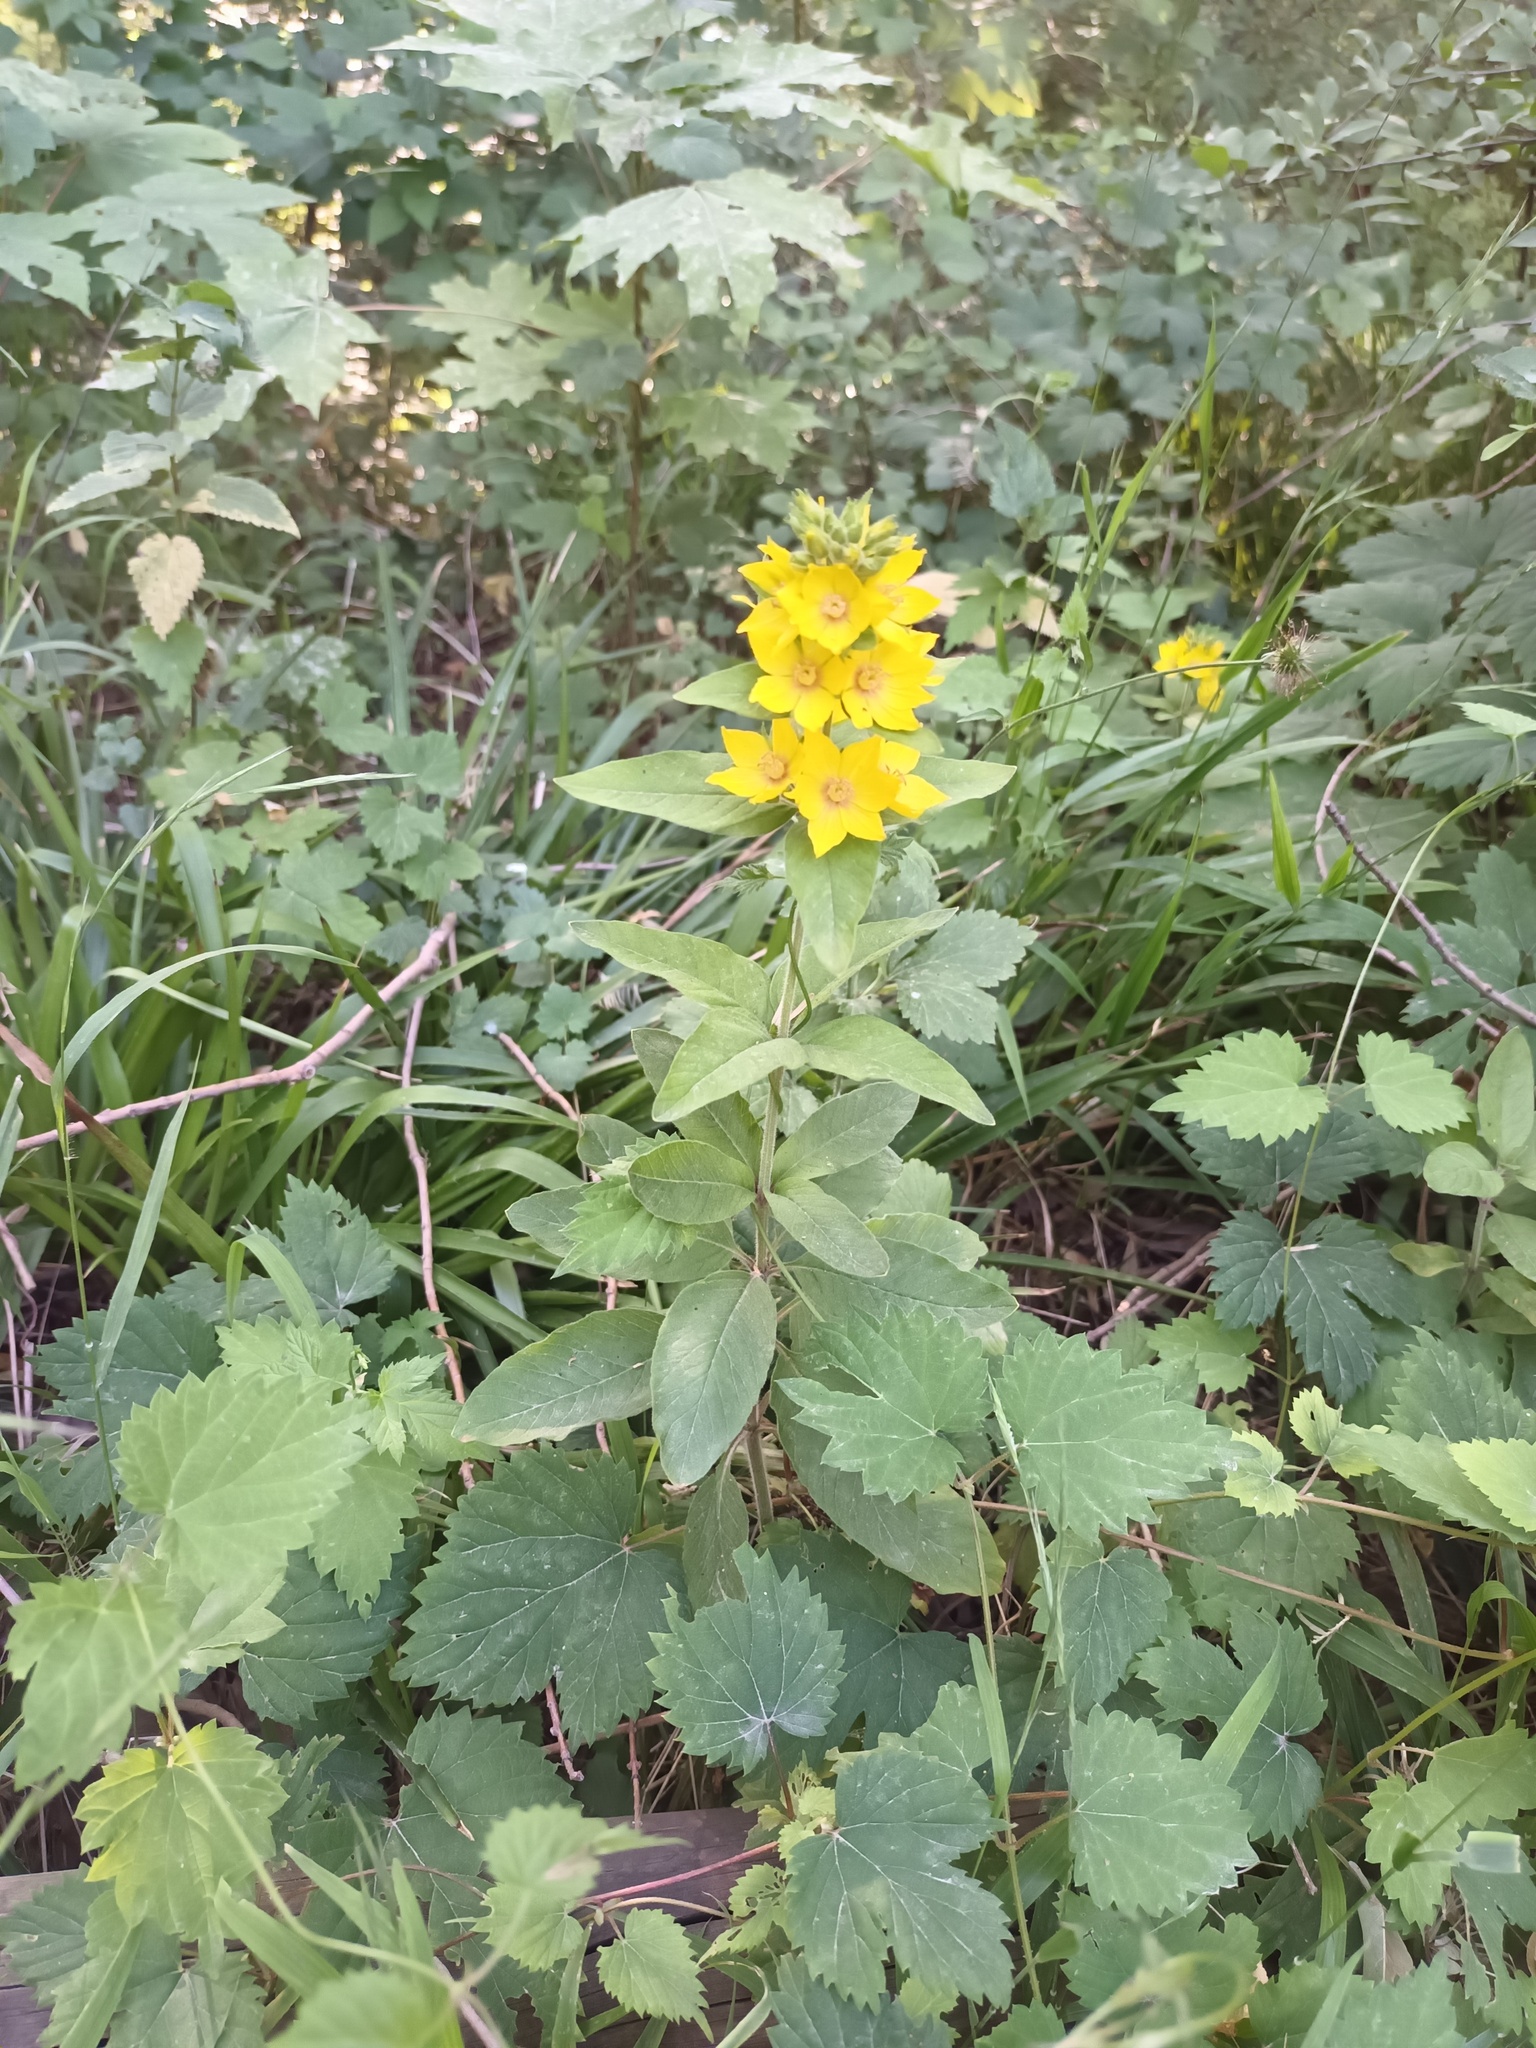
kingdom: Plantae
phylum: Tracheophyta
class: Magnoliopsida
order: Ericales
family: Primulaceae
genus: Lysimachia
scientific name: Lysimachia punctata
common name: Dotted loosestrife
